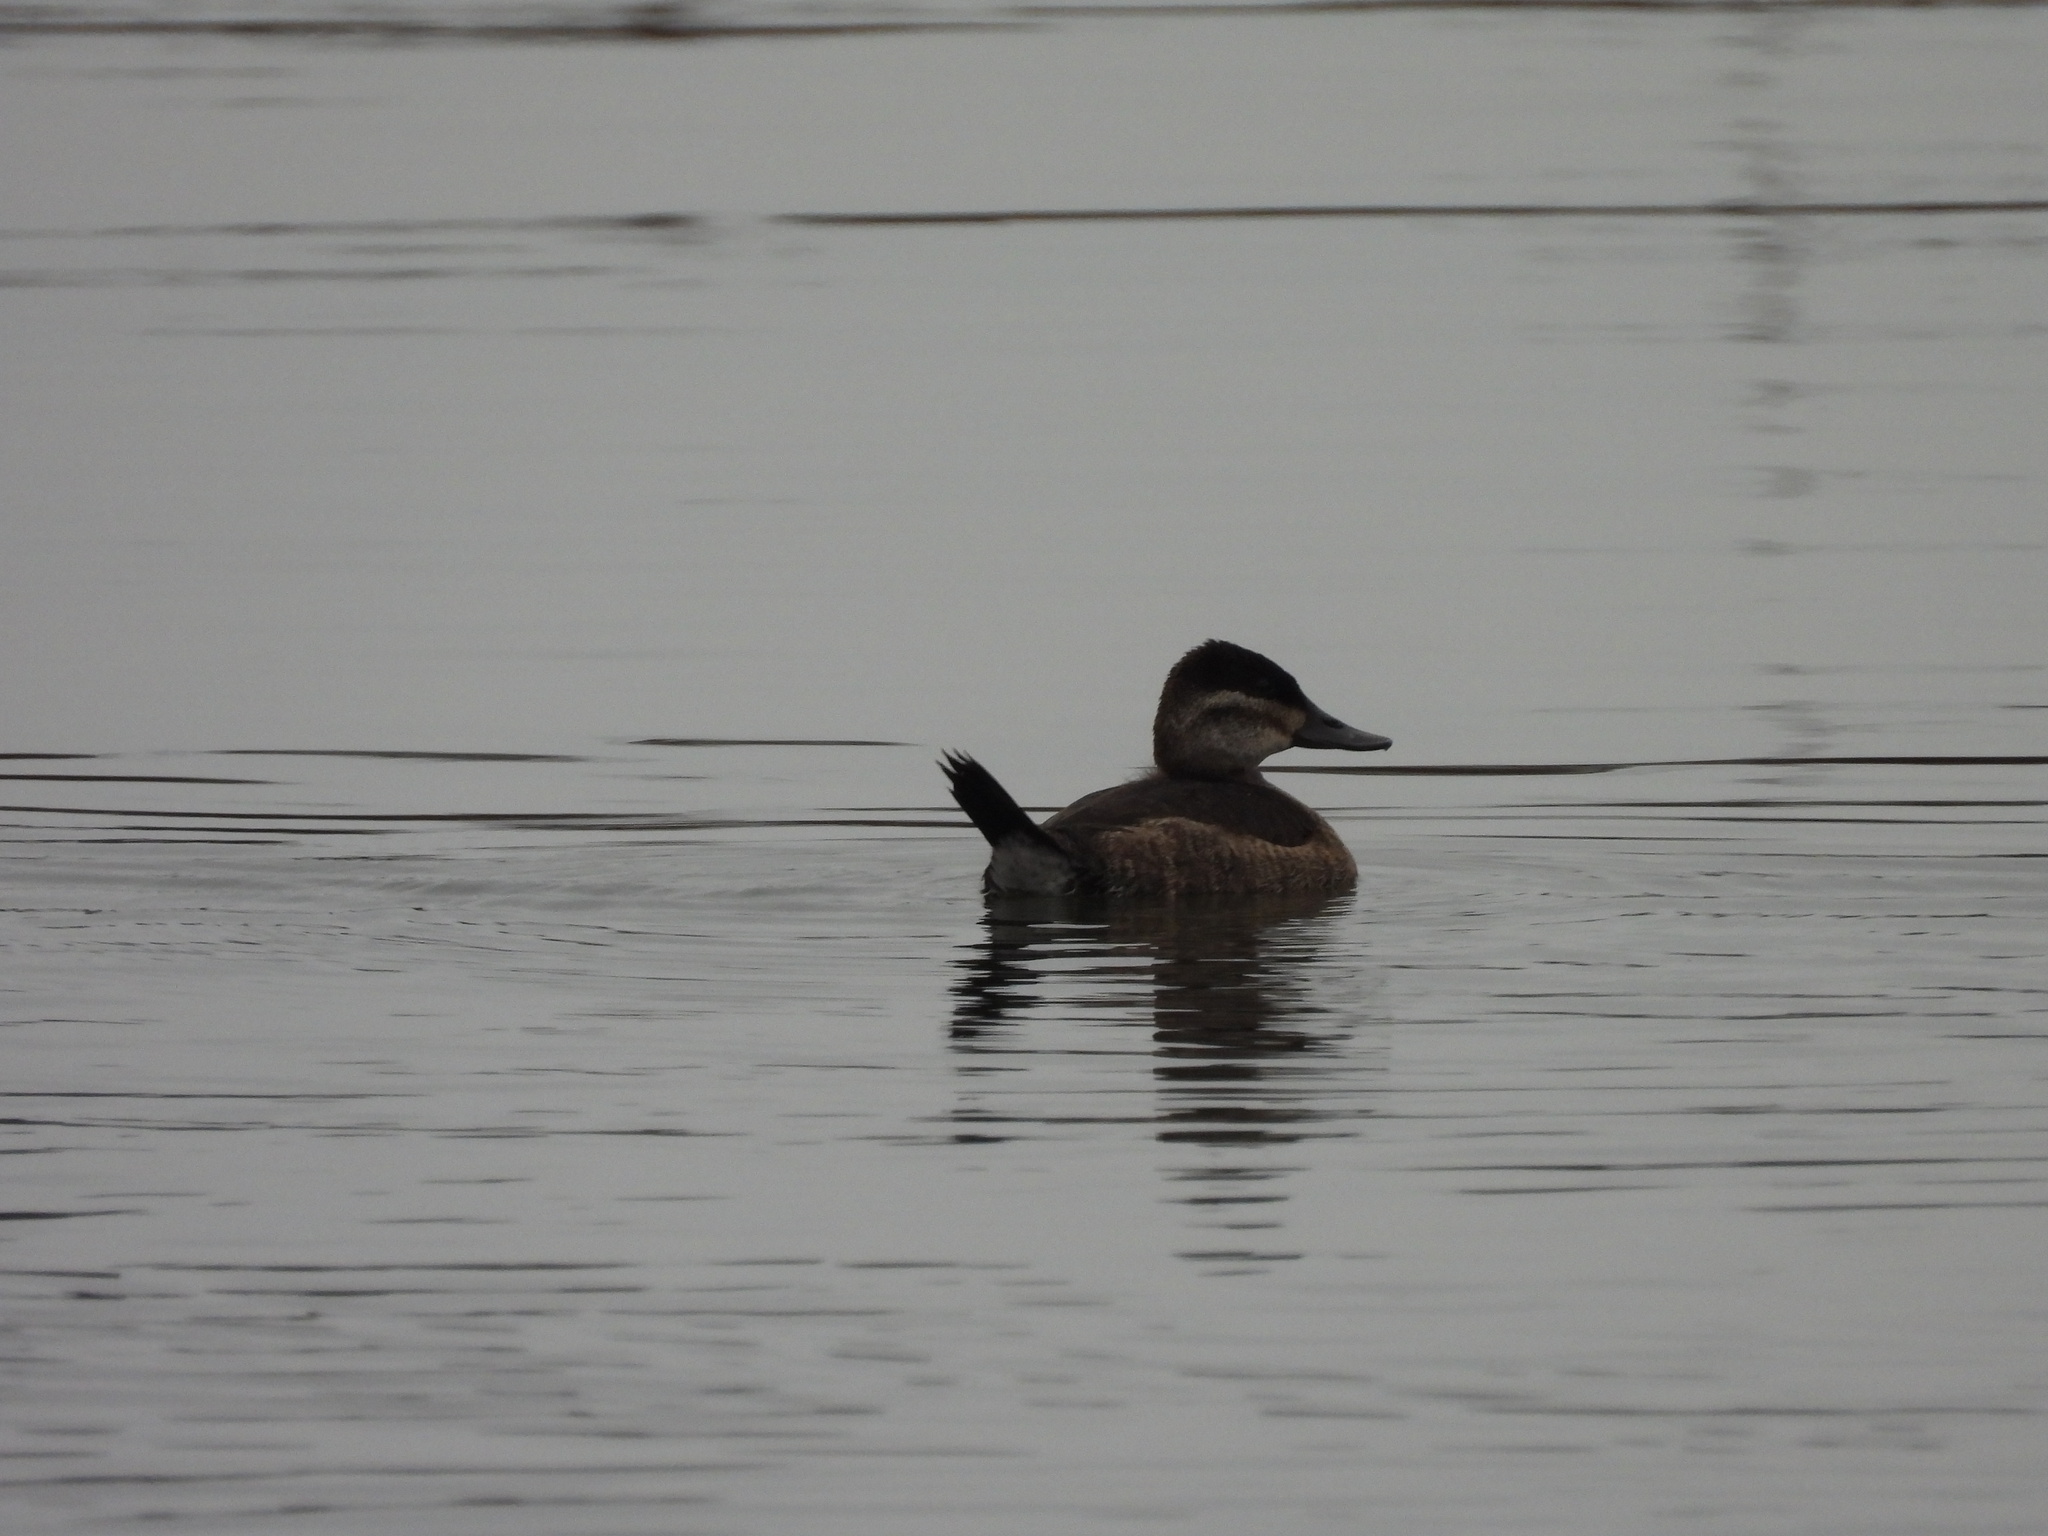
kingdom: Animalia
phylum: Chordata
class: Aves
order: Anseriformes
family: Anatidae
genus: Oxyura
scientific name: Oxyura jamaicensis
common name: Ruddy duck
